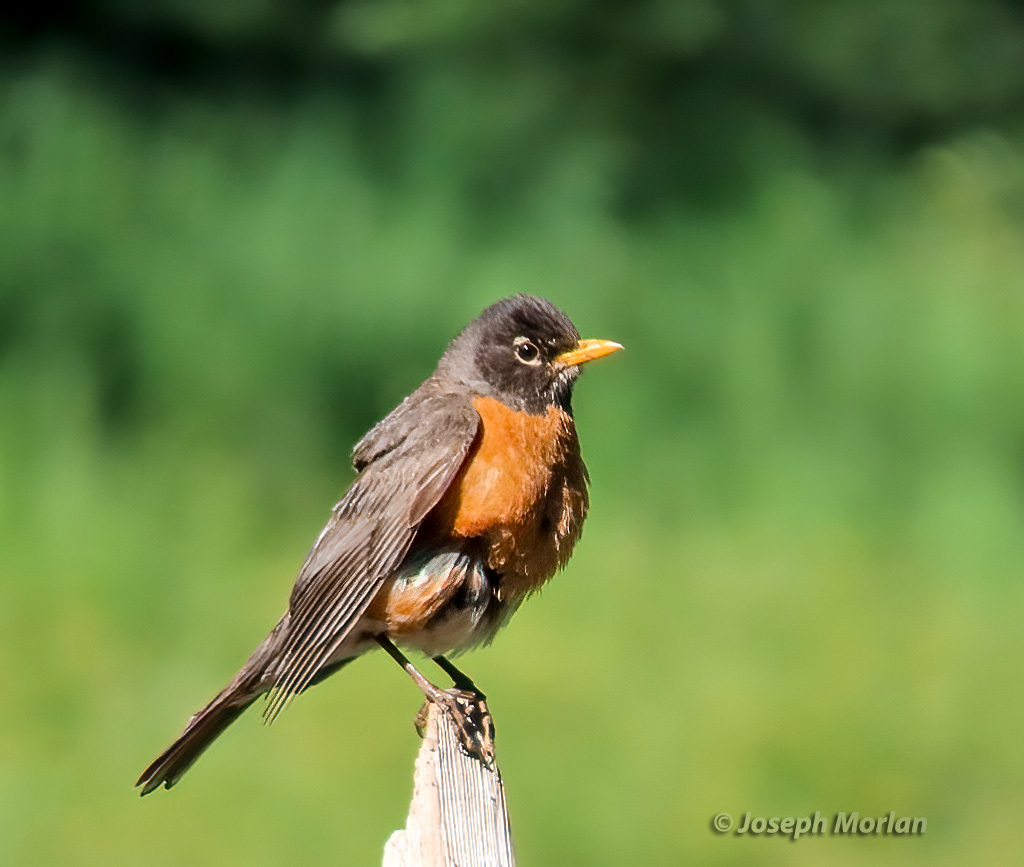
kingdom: Animalia
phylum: Chordata
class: Aves
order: Passeriformes
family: Turdidae
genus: Turdus
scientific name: Turdus migratorius
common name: American robin
